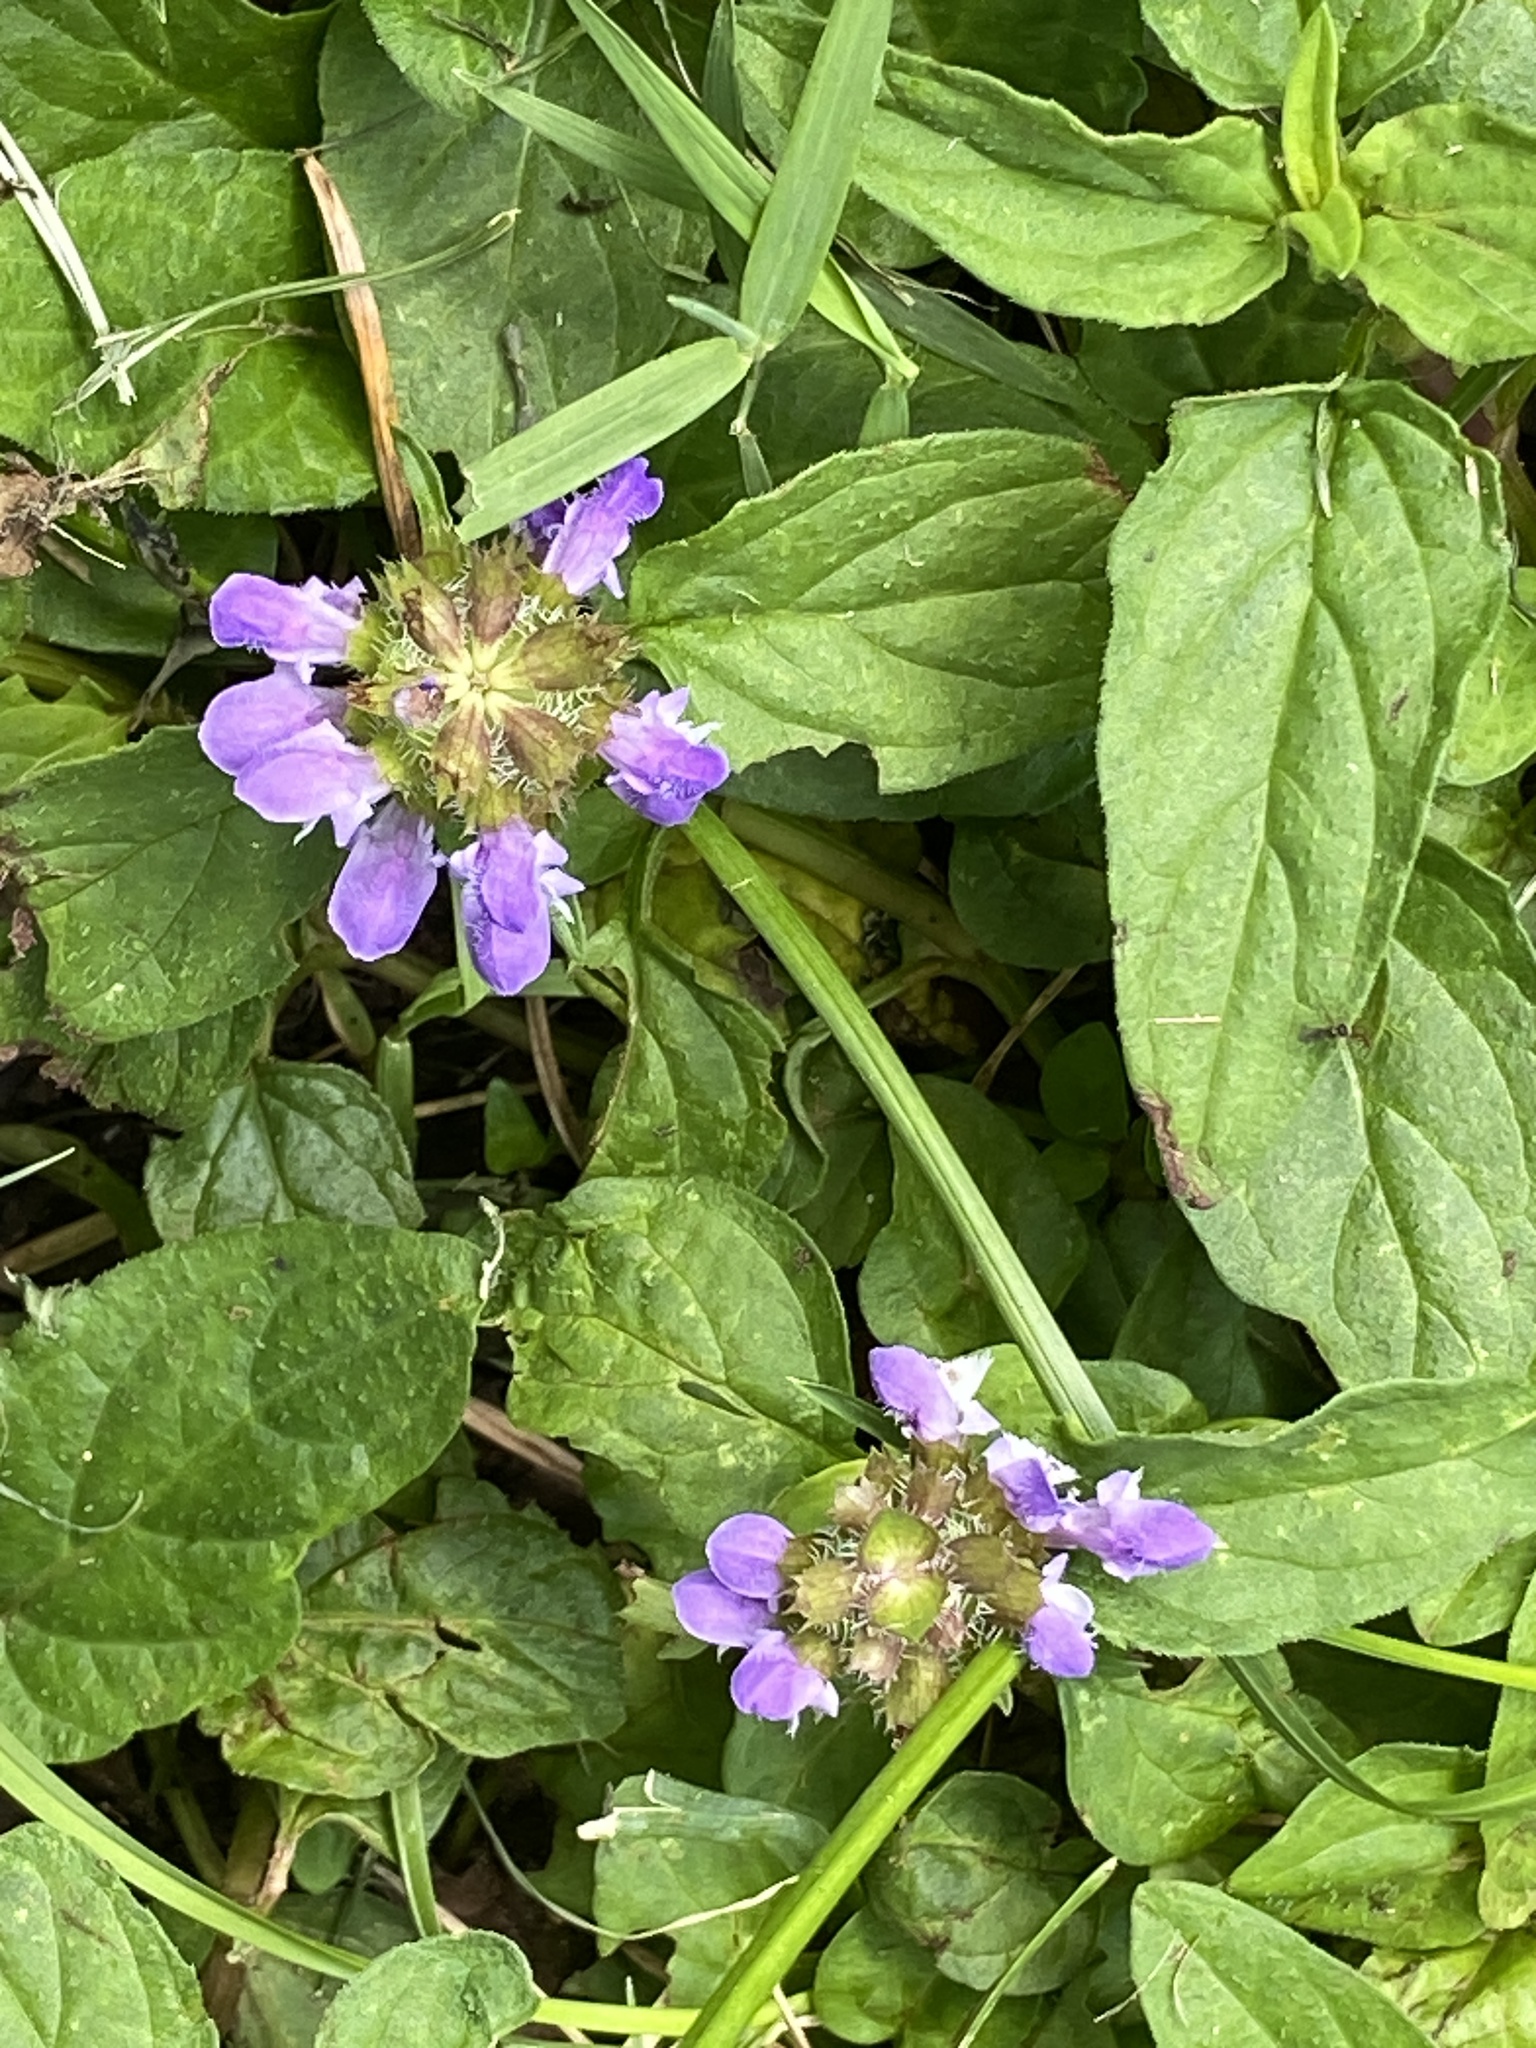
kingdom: Plantae
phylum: Tracheophyta
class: Magnoliopsida
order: Lamiales
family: Lamiaceae
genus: Prunella
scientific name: Prunella vulgaris
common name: Heal-all
